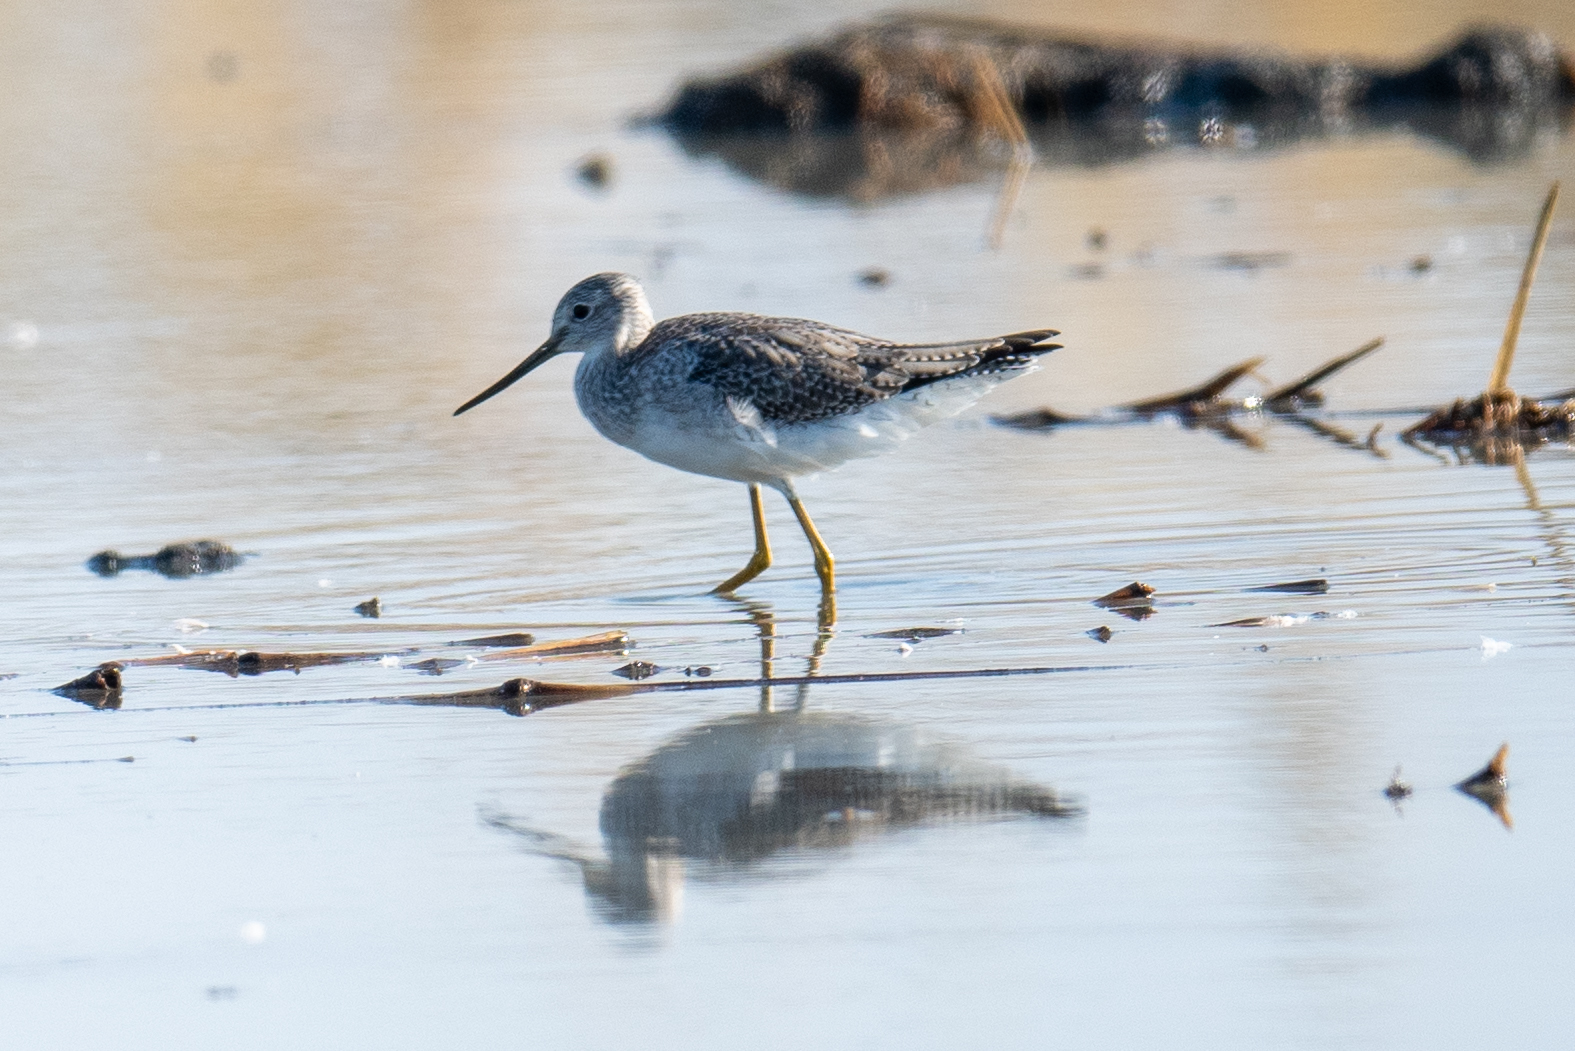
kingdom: Animalia
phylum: Chordata
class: Aves
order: Charadriiformes
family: Scolopacidae
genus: Tringa
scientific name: Tringa melanoleuca
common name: Greater yellowlegs
